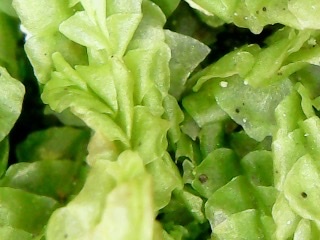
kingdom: Plantae
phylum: Marchantiophyta
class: Jungermanniopsida
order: Jungermanniales
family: Lophocoleaceae
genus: Lophocolea
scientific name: Lophocolea semiteres
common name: Southern crestwort
